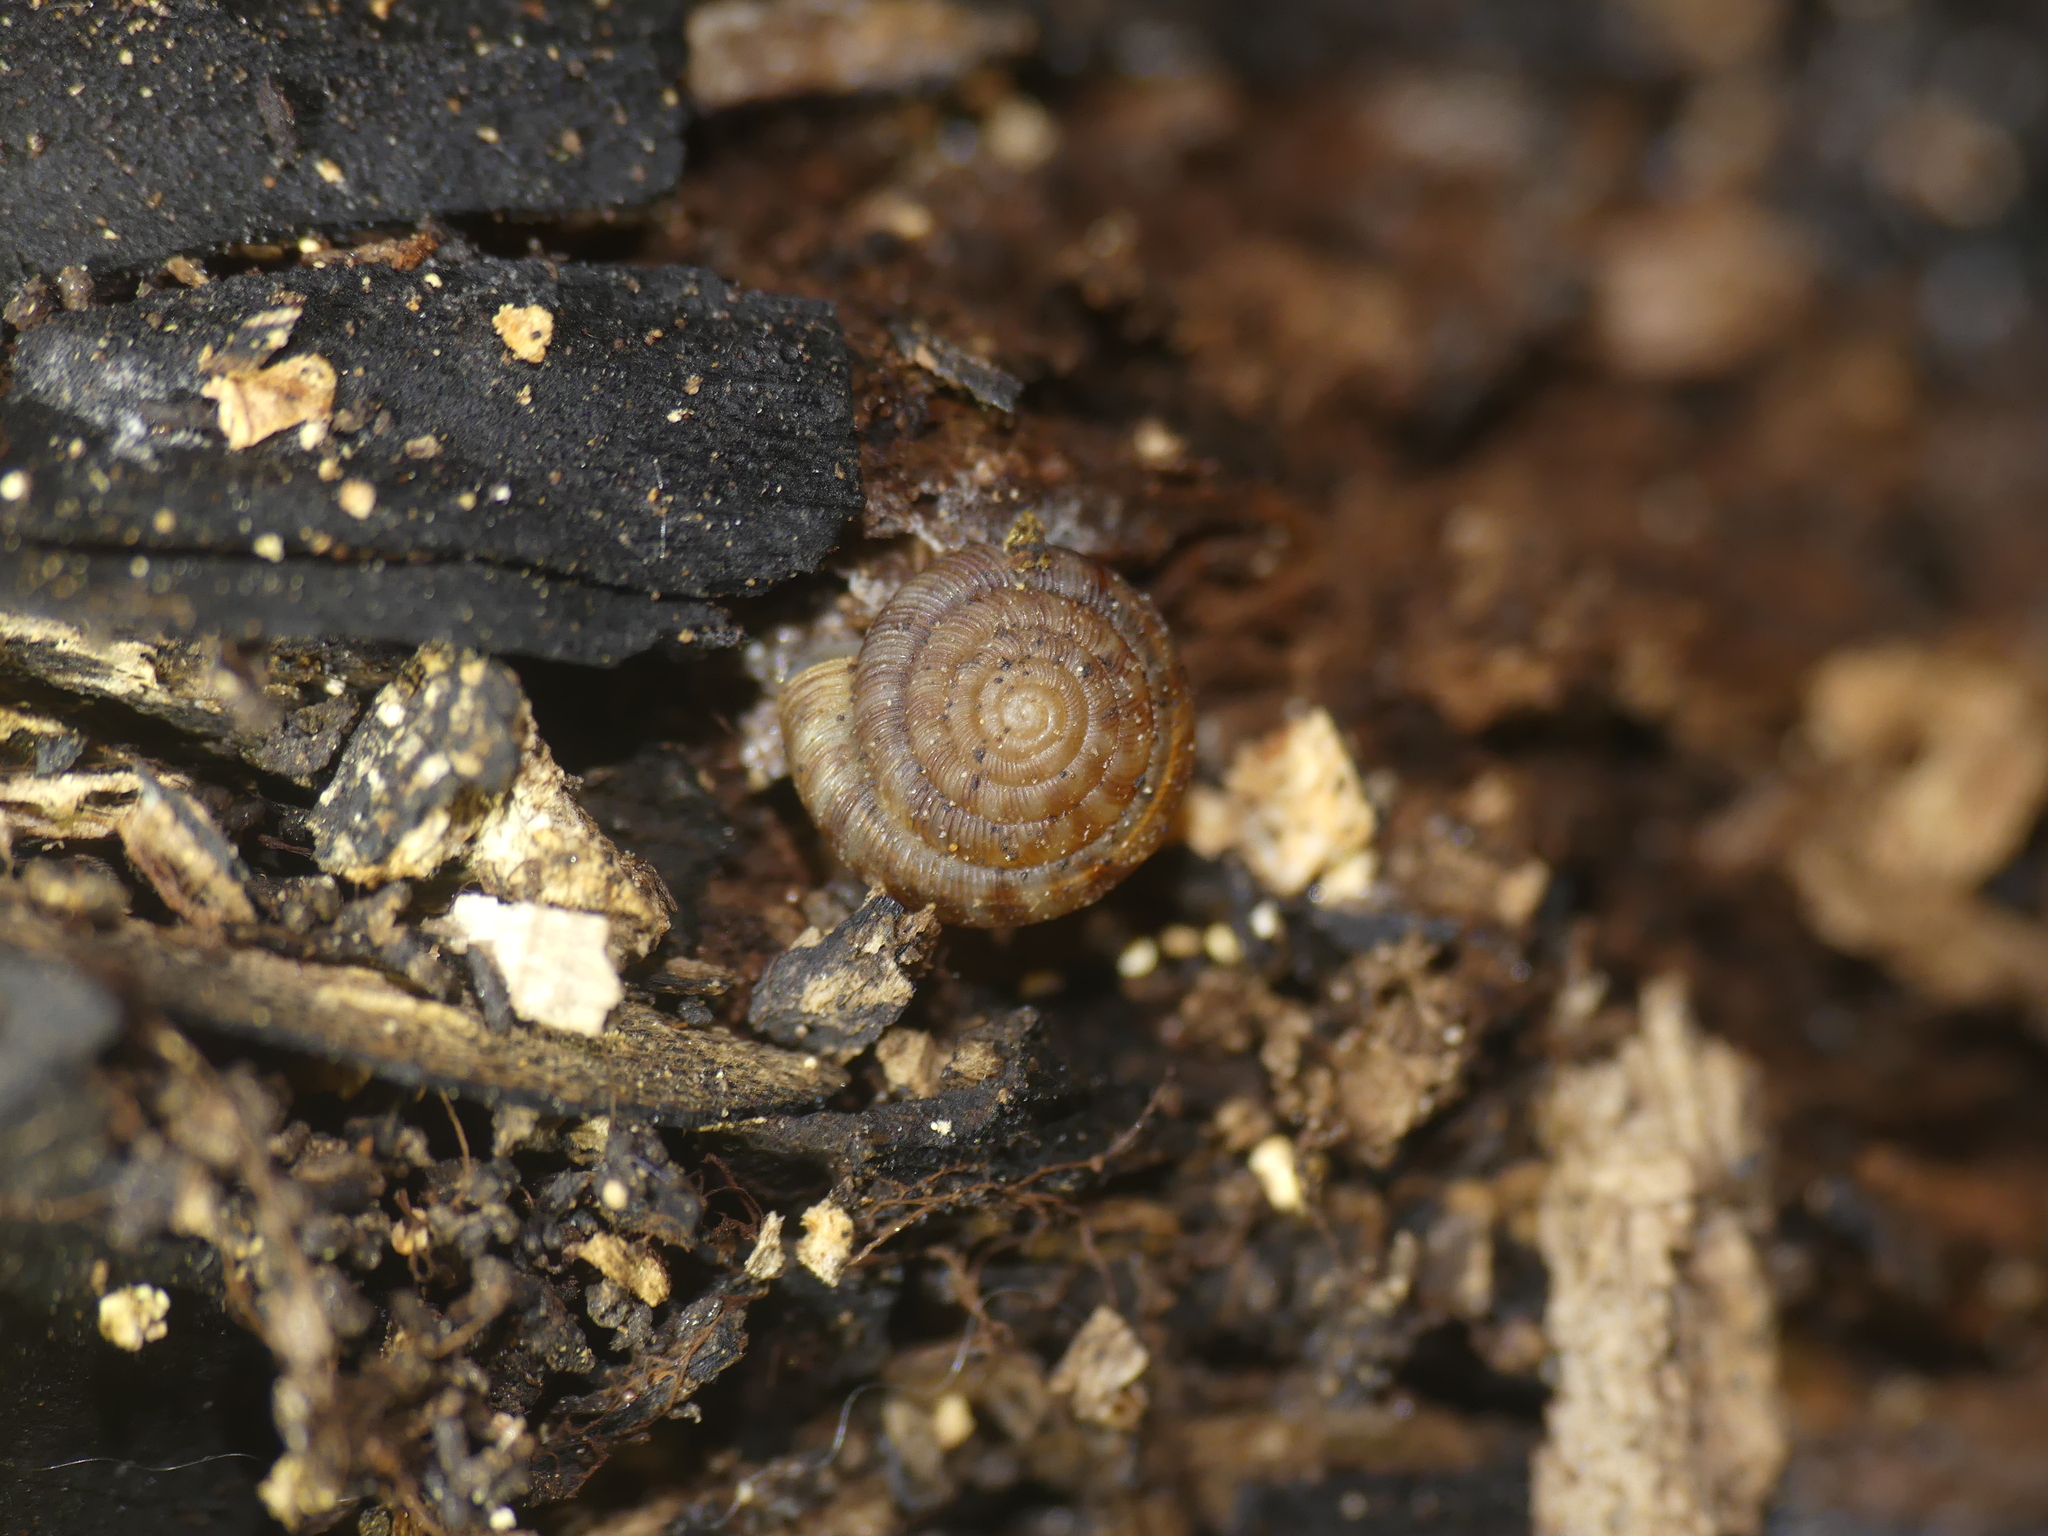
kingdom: Animalia
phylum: Mollusca
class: Gastropoda
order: Stylommatophora
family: Discidae
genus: Discus
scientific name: Discus rotundatus
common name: Rounded snail
